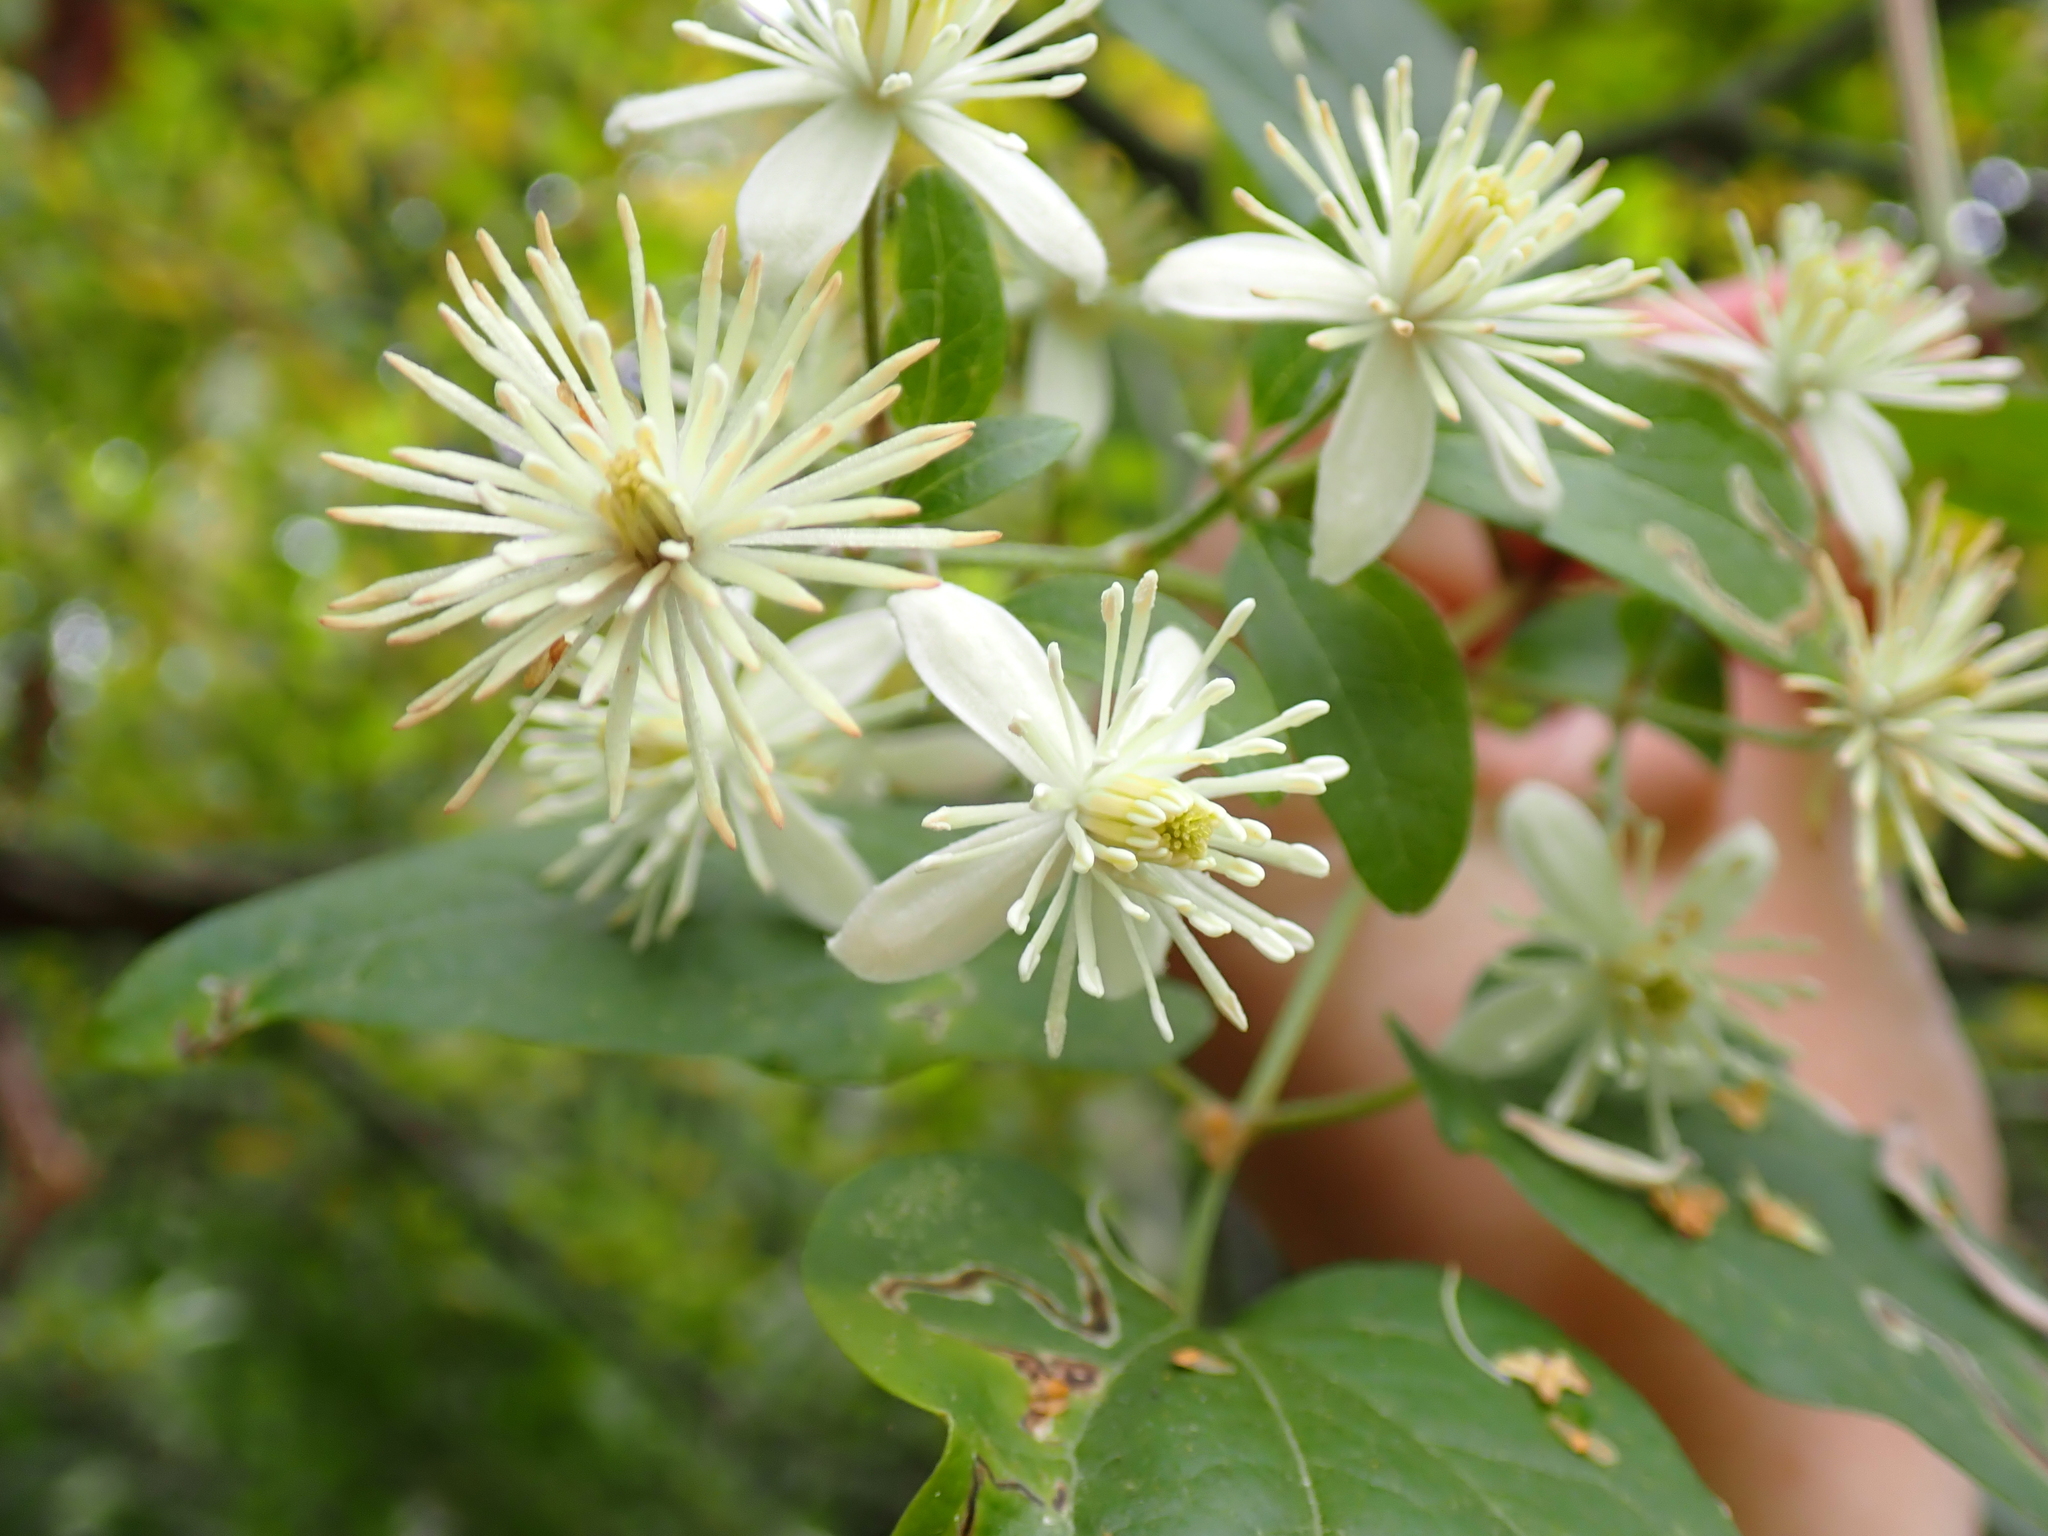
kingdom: Plantae
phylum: Tracheophyta
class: Magnoliopsida
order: Ranunculales
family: Ranunculaceae
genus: Clematis
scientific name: Clematis vitalba
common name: Evergreen clematis
